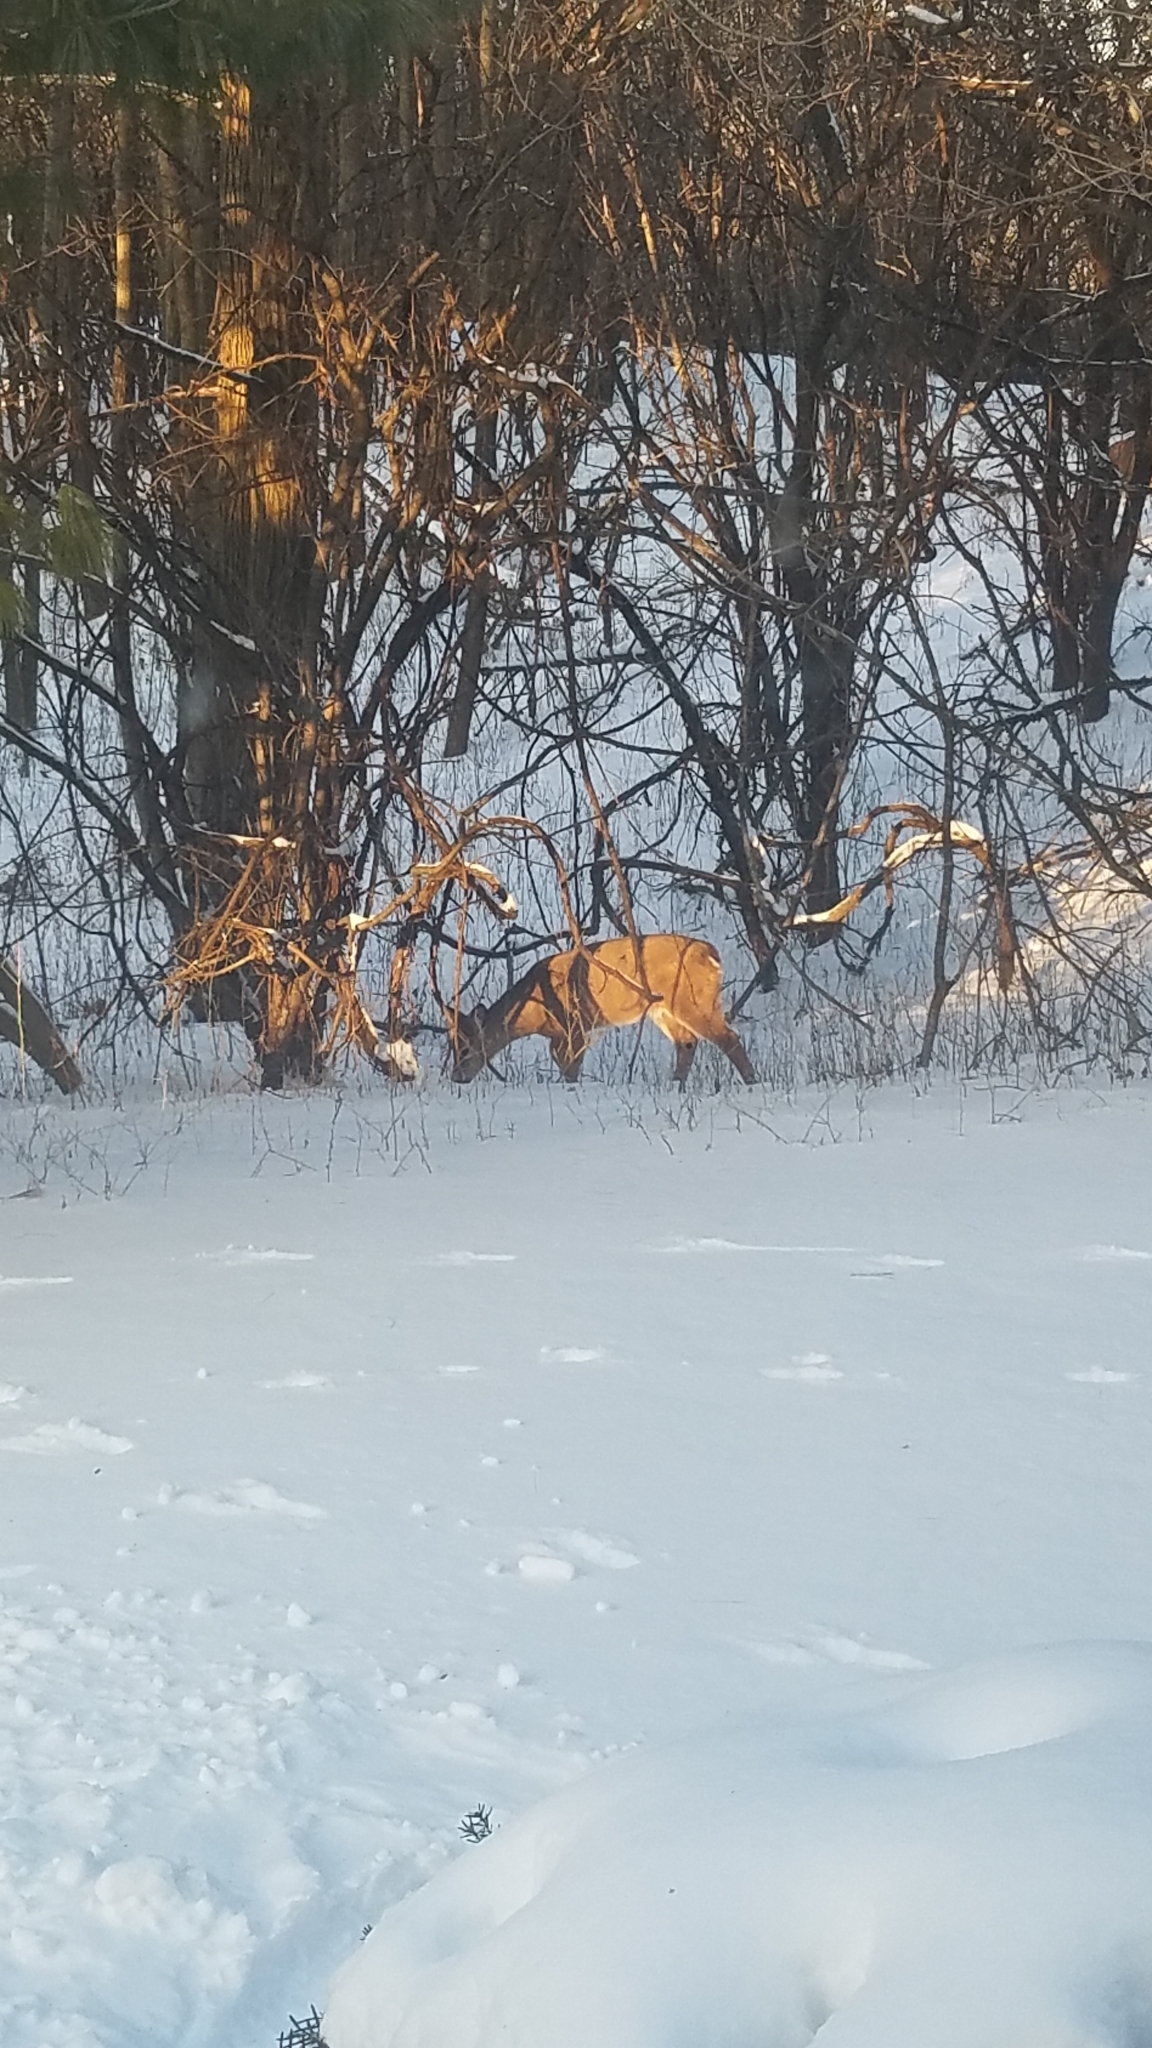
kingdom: Animalia
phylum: Chordata
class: Mammalia
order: Artiodactyla
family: Cervidae
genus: Odocoileus
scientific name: Odocoileus virginianus
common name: White-tailed deer
